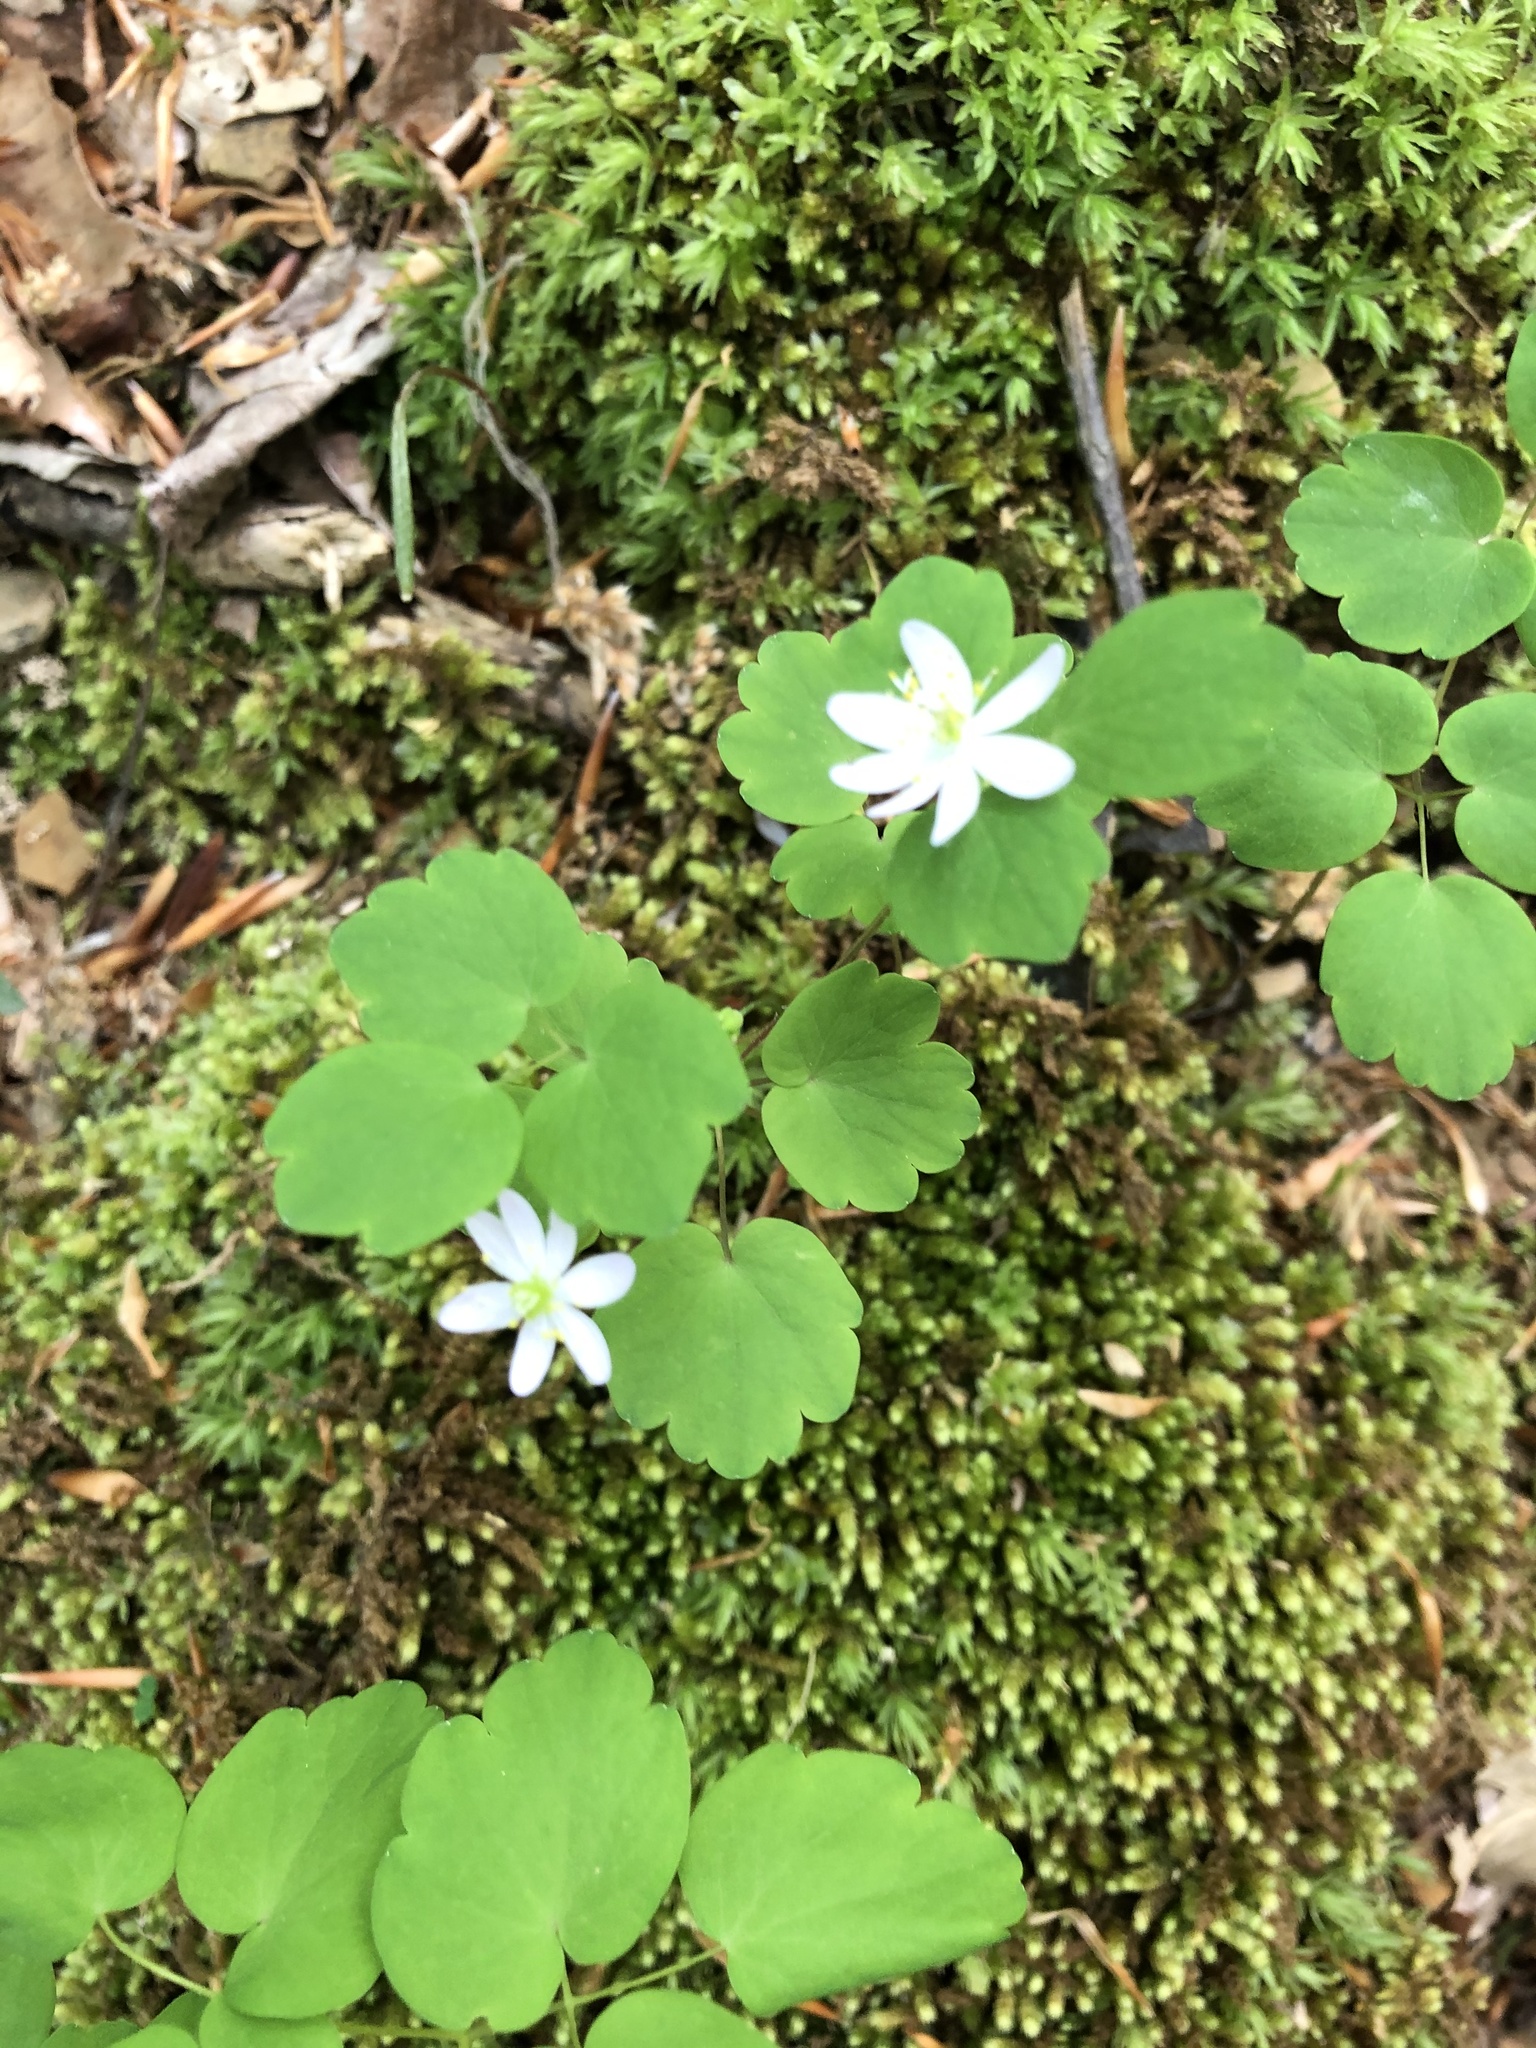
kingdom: Plantae
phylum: Tracheophyta
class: Magnoliopsida
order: Ranunculales
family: Ranunculaceae
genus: Thalictrum
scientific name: Thalictrum thalictroides
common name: Rue-anemone
